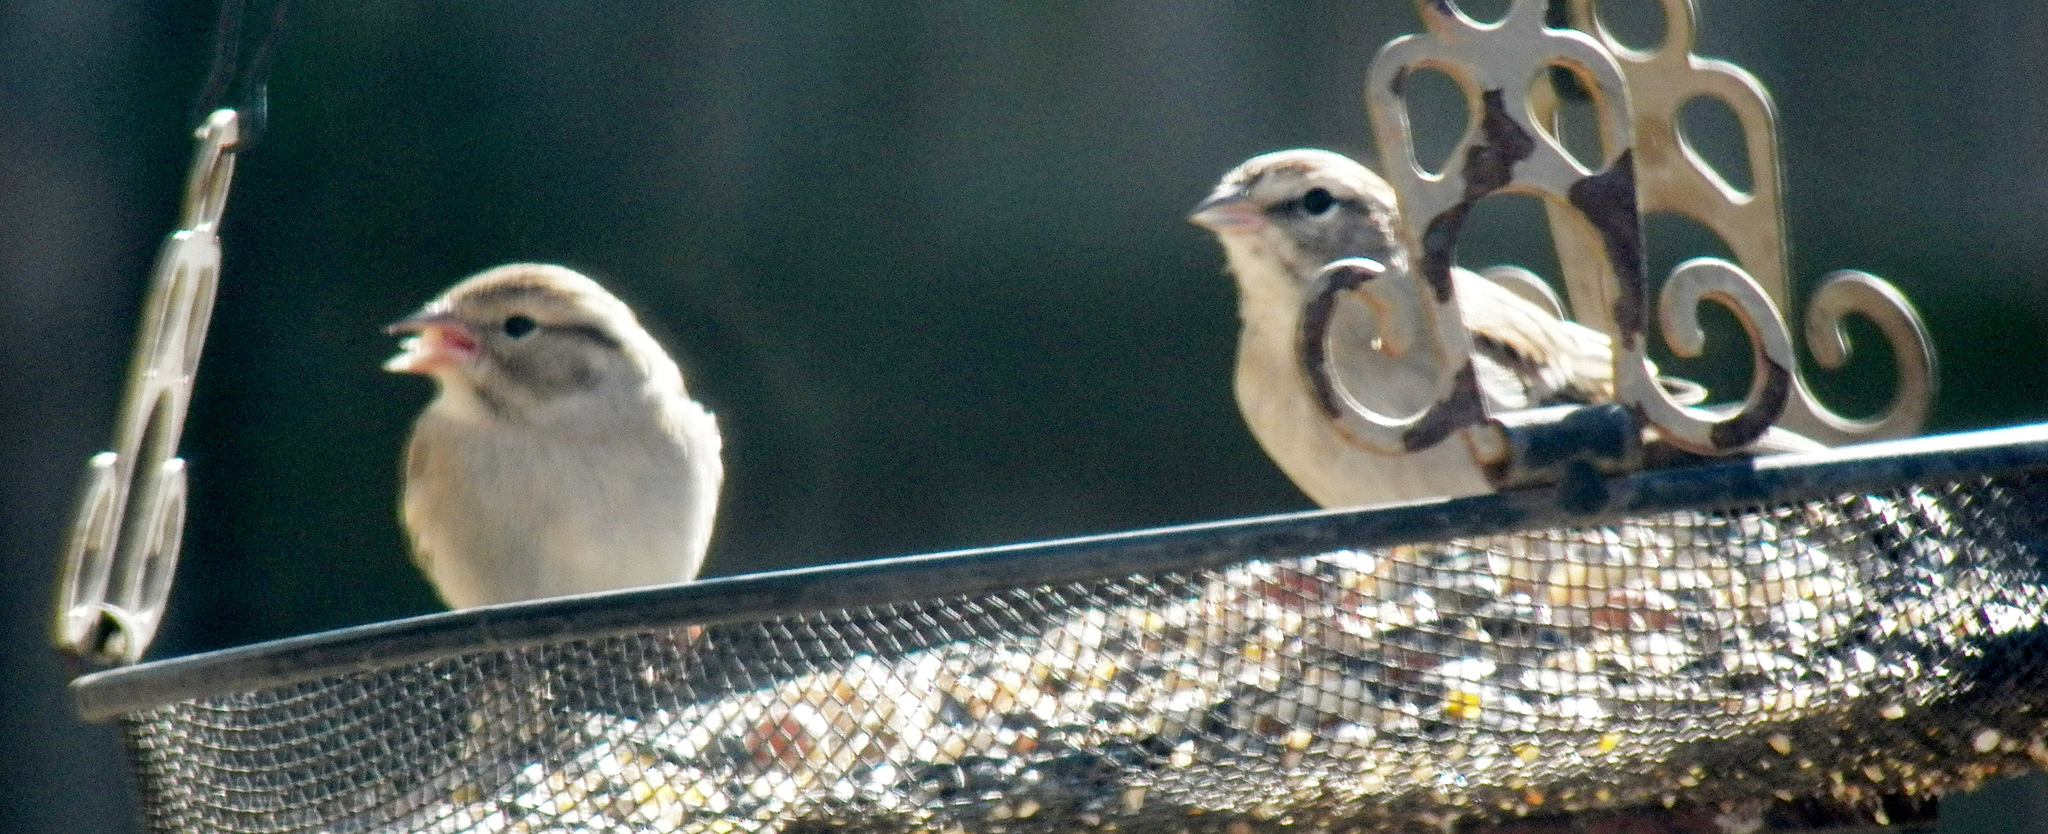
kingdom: Animalia
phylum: Chordata
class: Aves
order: Passeriformes
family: Passerellidae
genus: Spizella
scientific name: Spizella passerina
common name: Chipping sparrow
